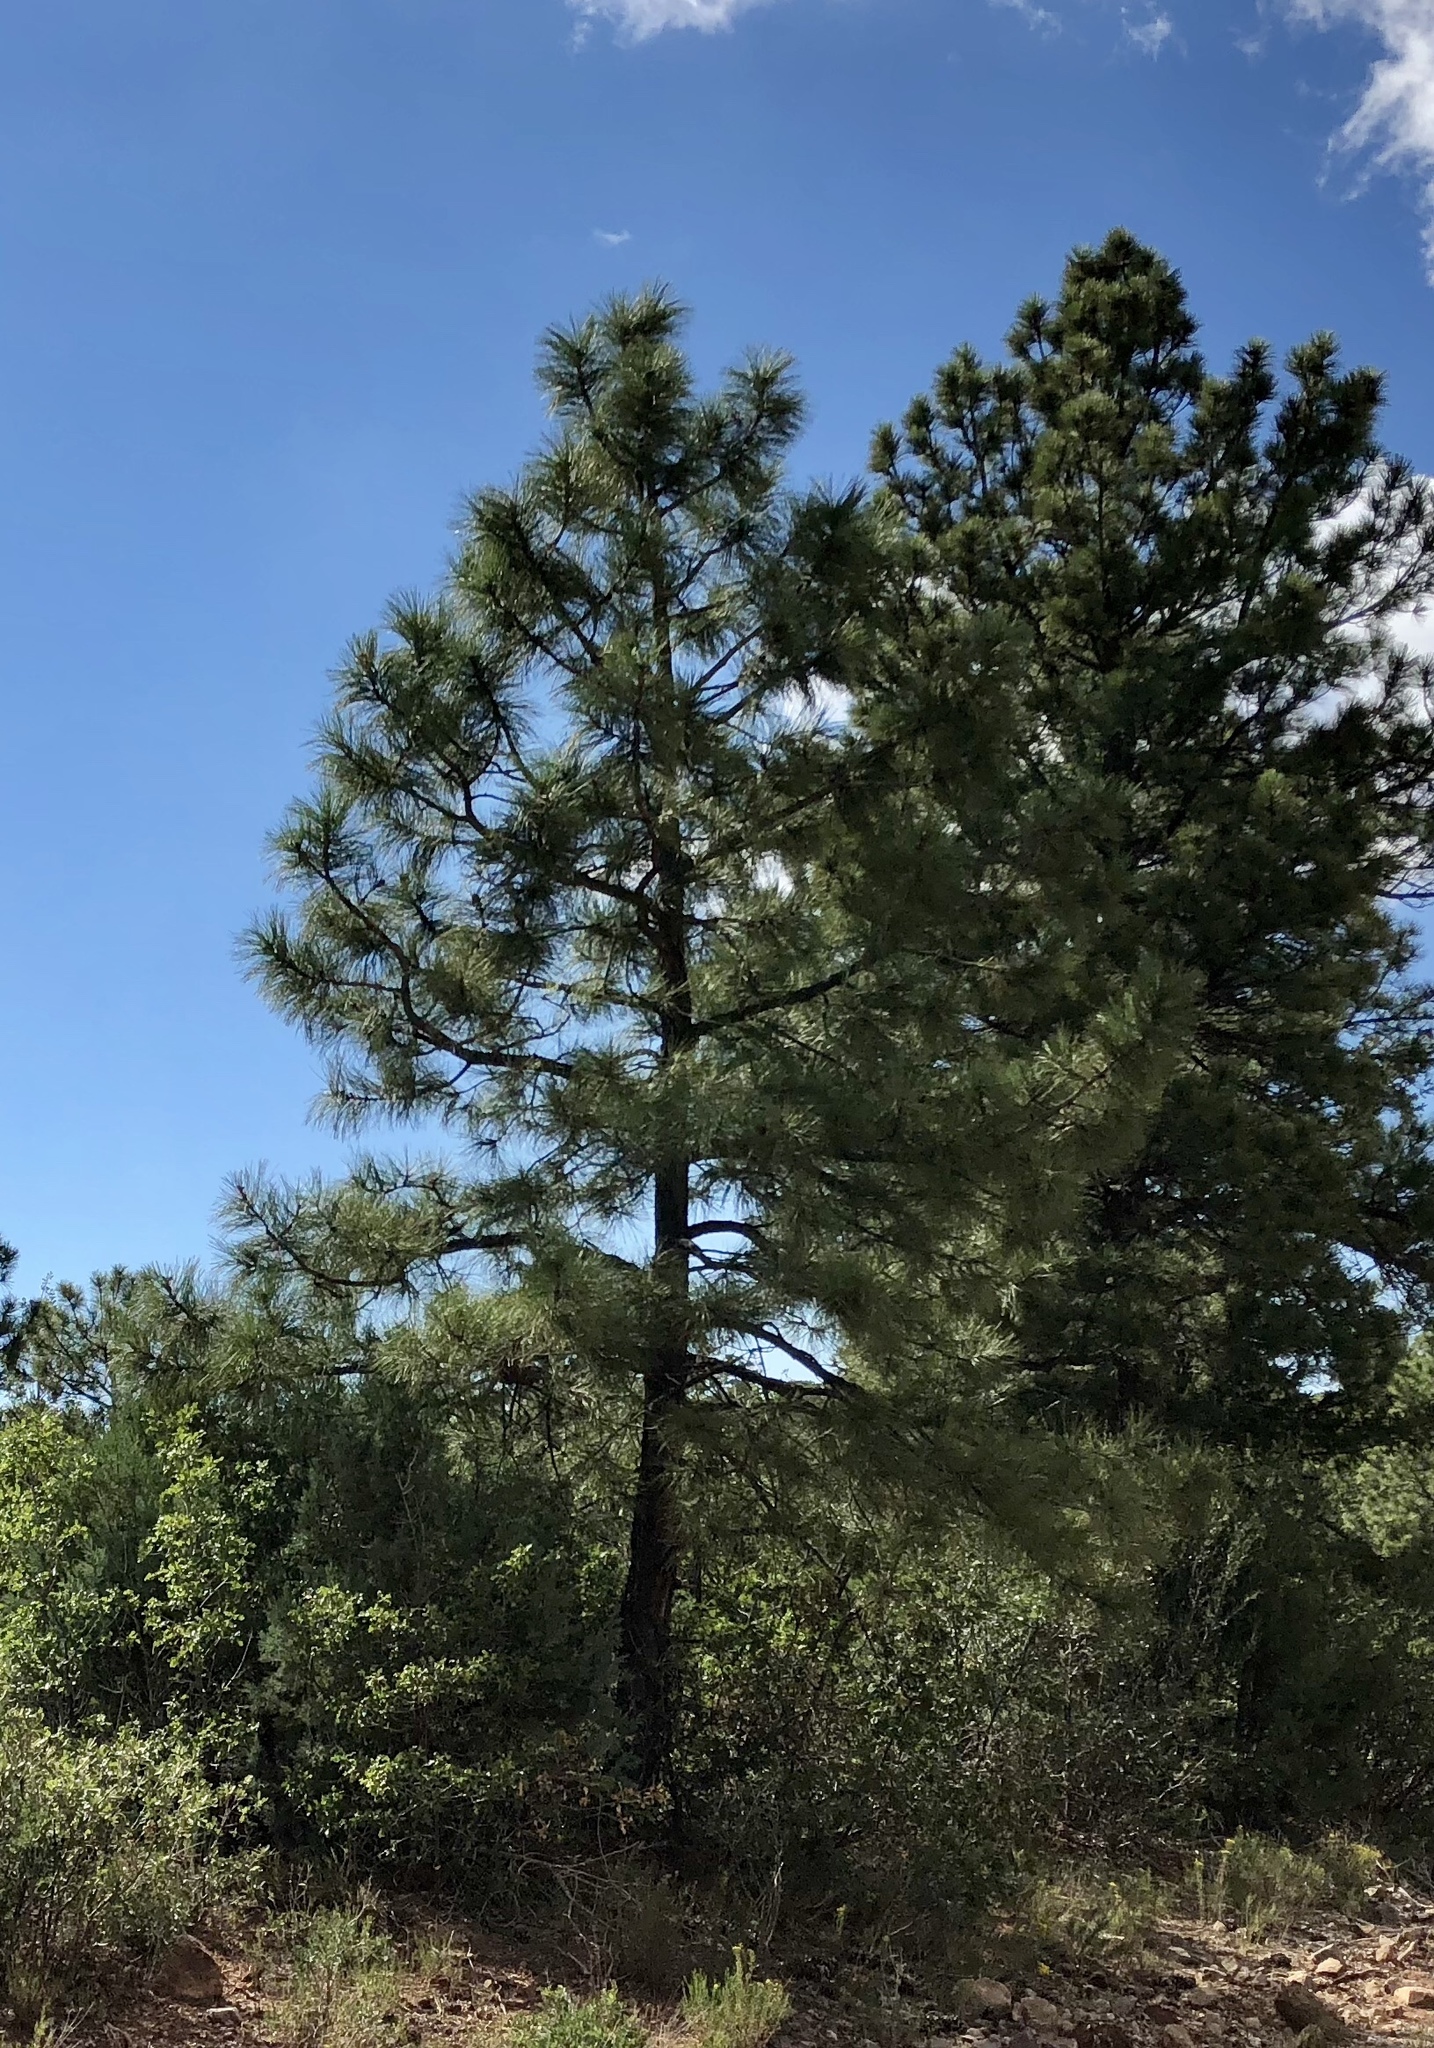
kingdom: Plantae
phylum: Tracheophyta
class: Pinopsida
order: Pinales
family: Pinaceae
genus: Pinus
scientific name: Pinus ponderosa
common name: Western yellow-pine
